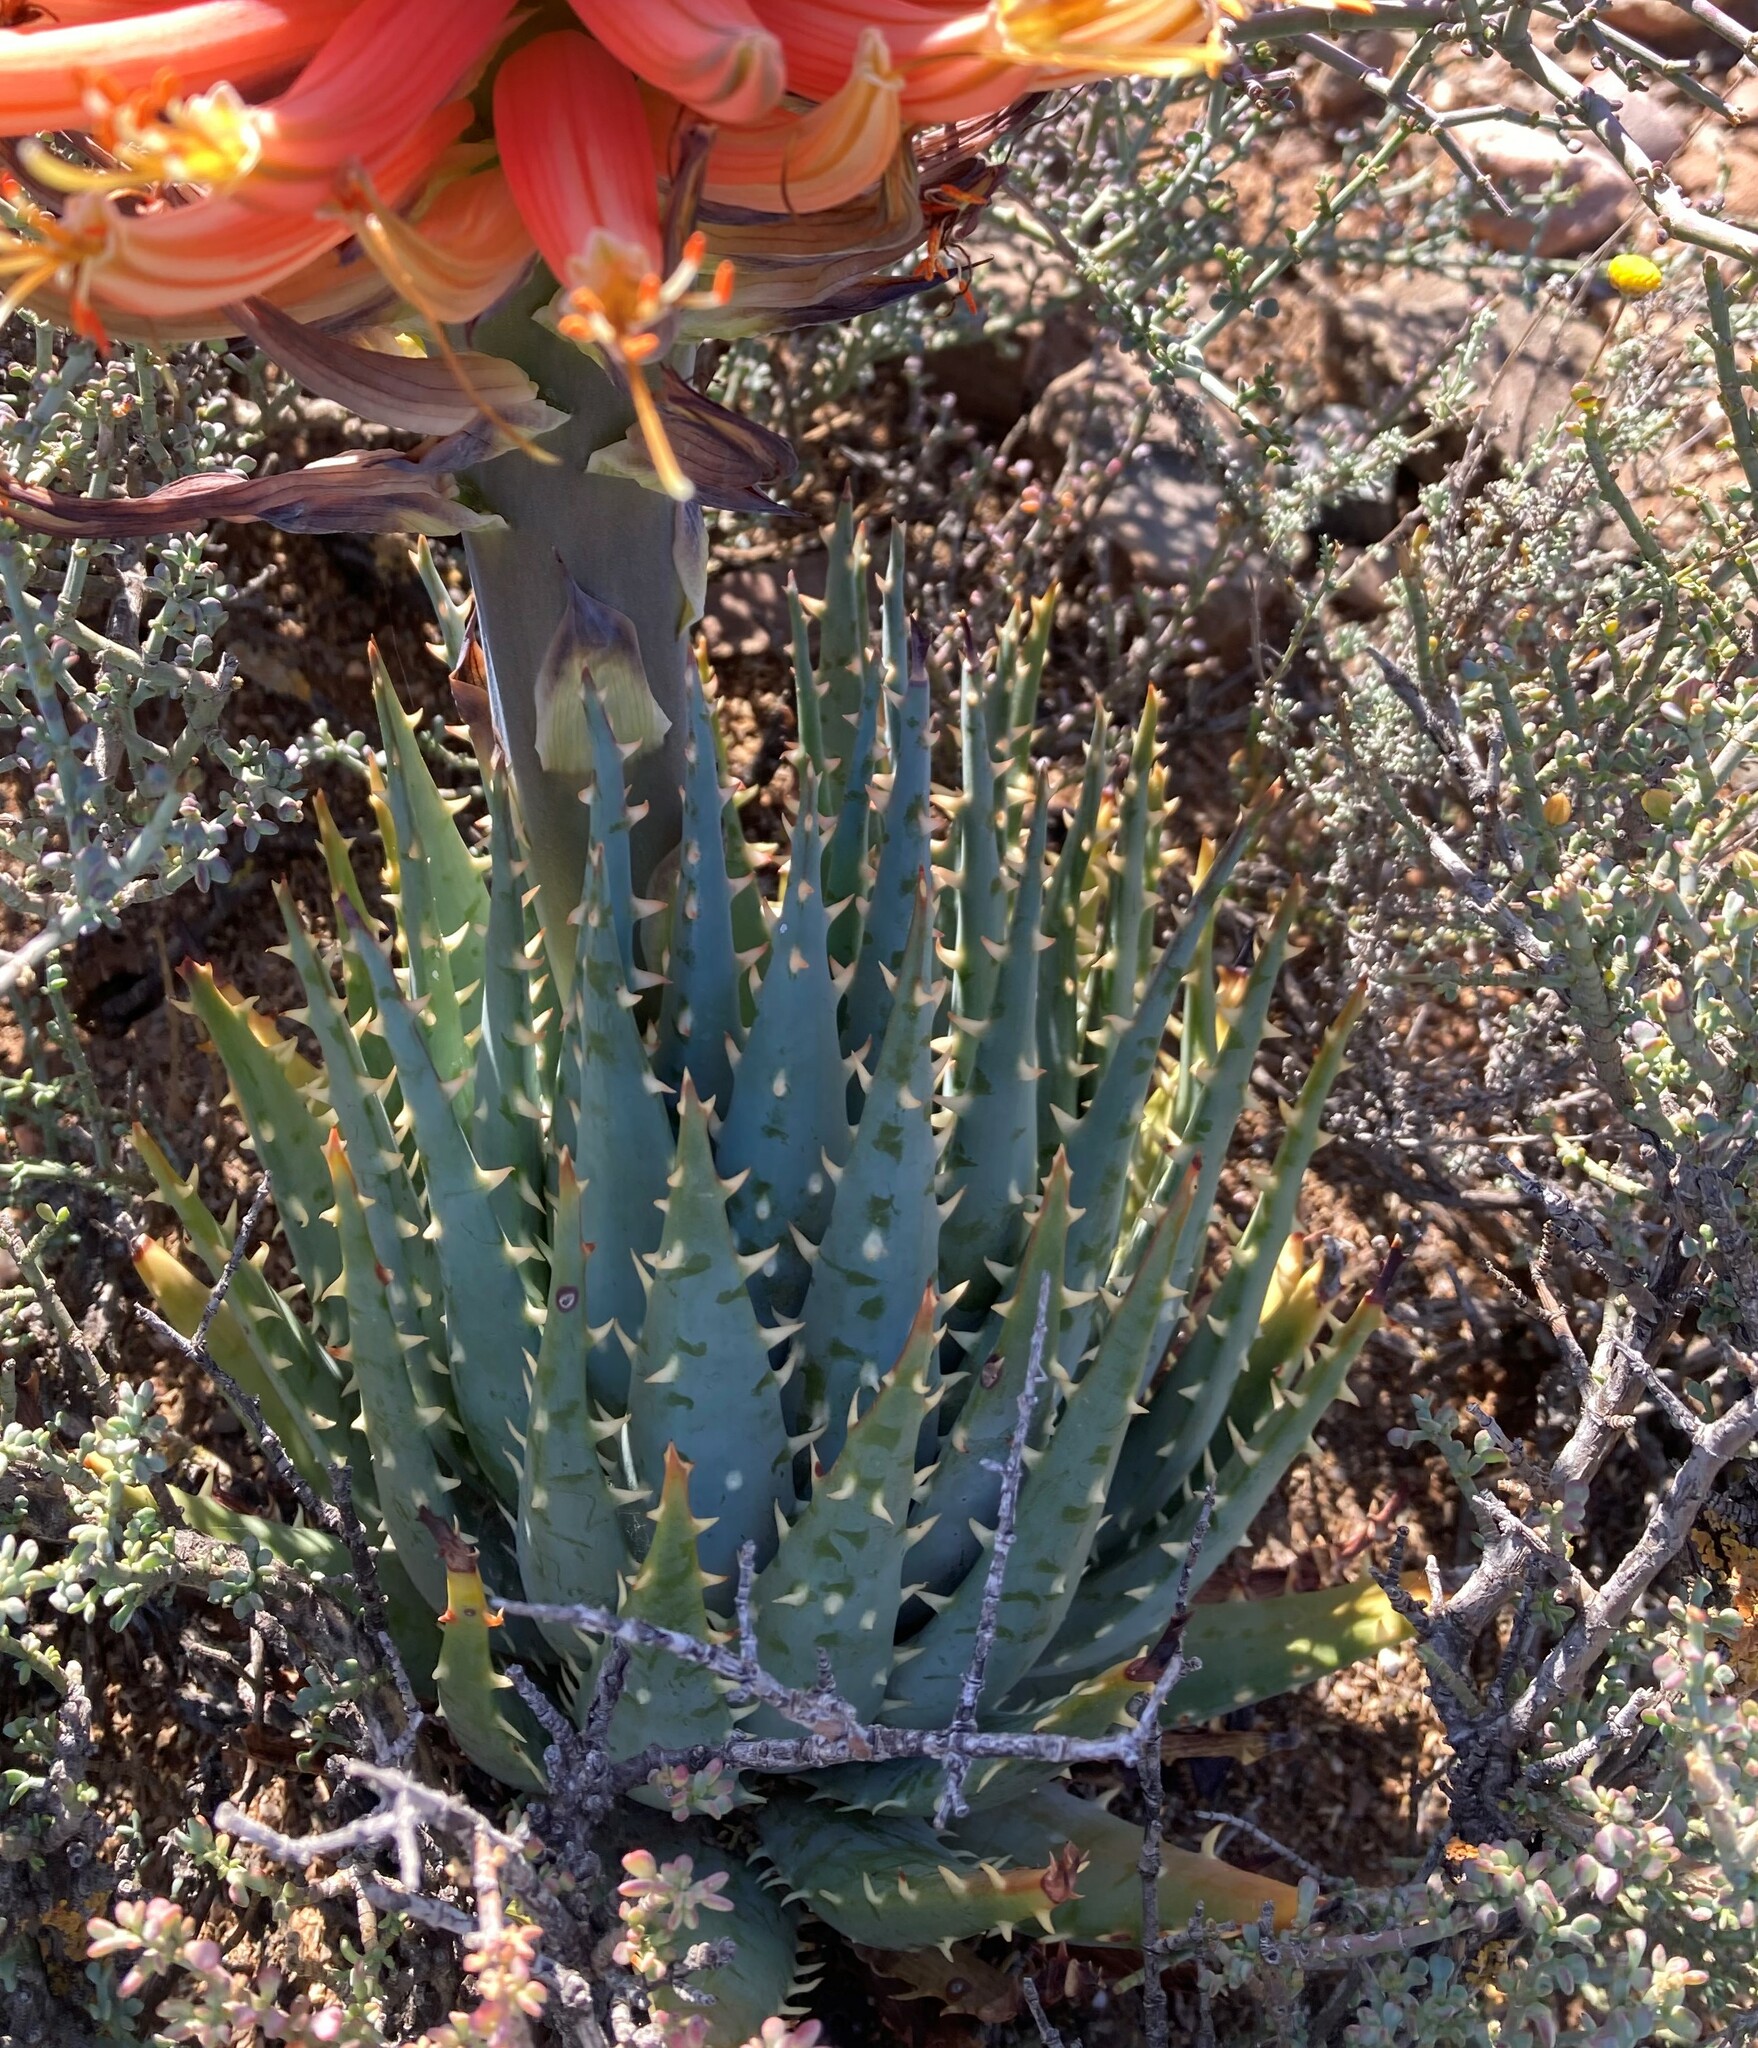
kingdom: Plantae
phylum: Tracheophyta
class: Liliopsida
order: Asparagales
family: Asphodelaceae
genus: Aloe
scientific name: Aloe longistyla
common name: Karoo aloe
